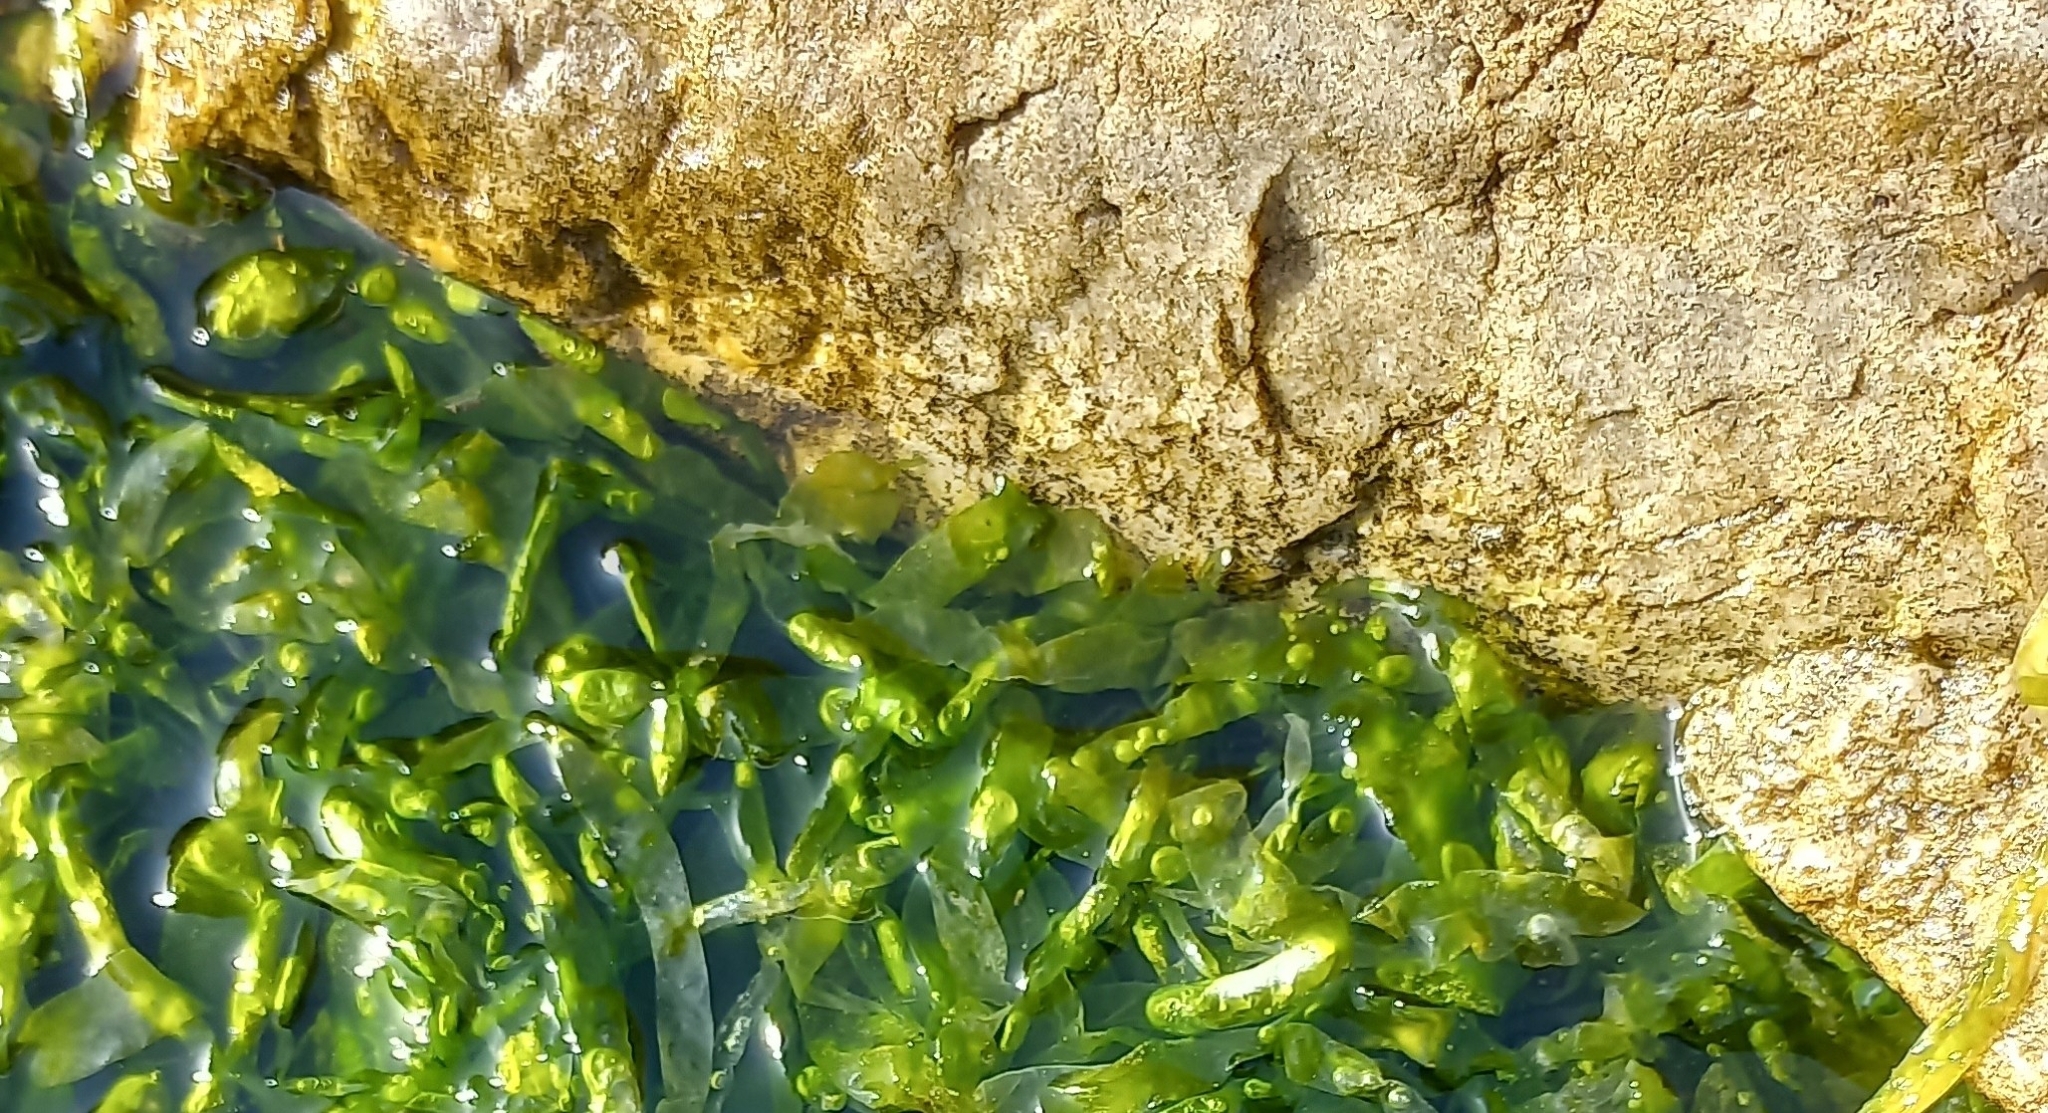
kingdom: Plantae
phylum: Chlorophyta
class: Ulvophyceae
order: Ulvales
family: Ulvaceae
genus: Ulva
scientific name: Ulva lactuca
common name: Sea lettuce
